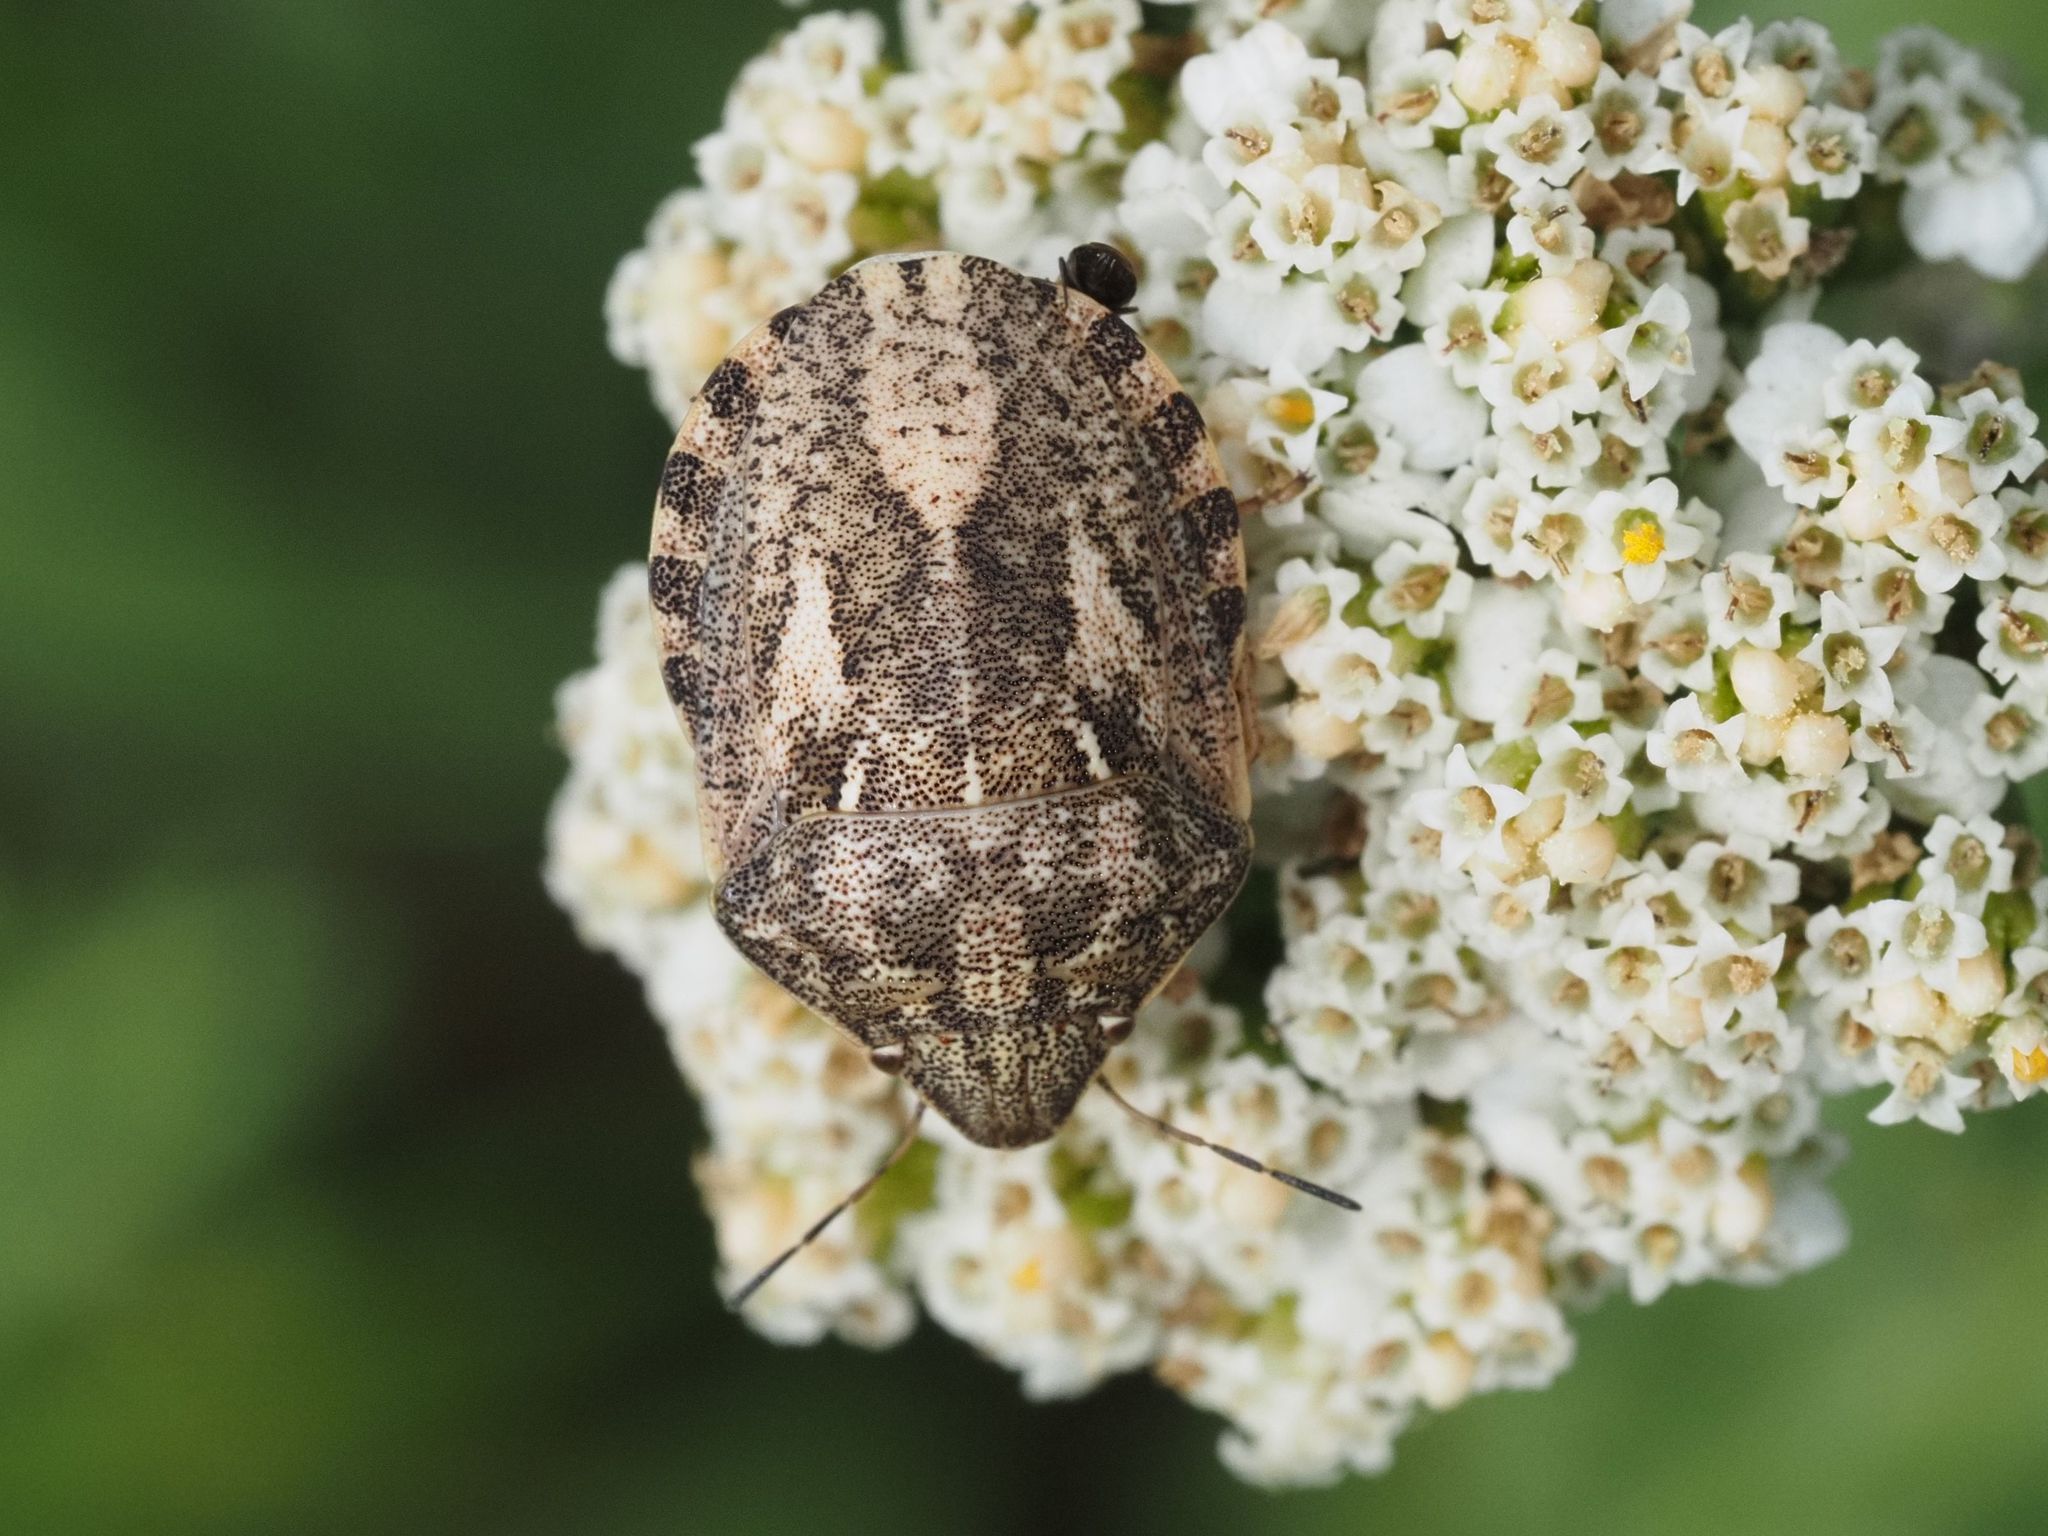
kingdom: Animalia
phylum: Arthropoda
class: Insecta
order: Hemiptera
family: Scutelleridae
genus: Eurygaster
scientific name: Eurygaster maura
